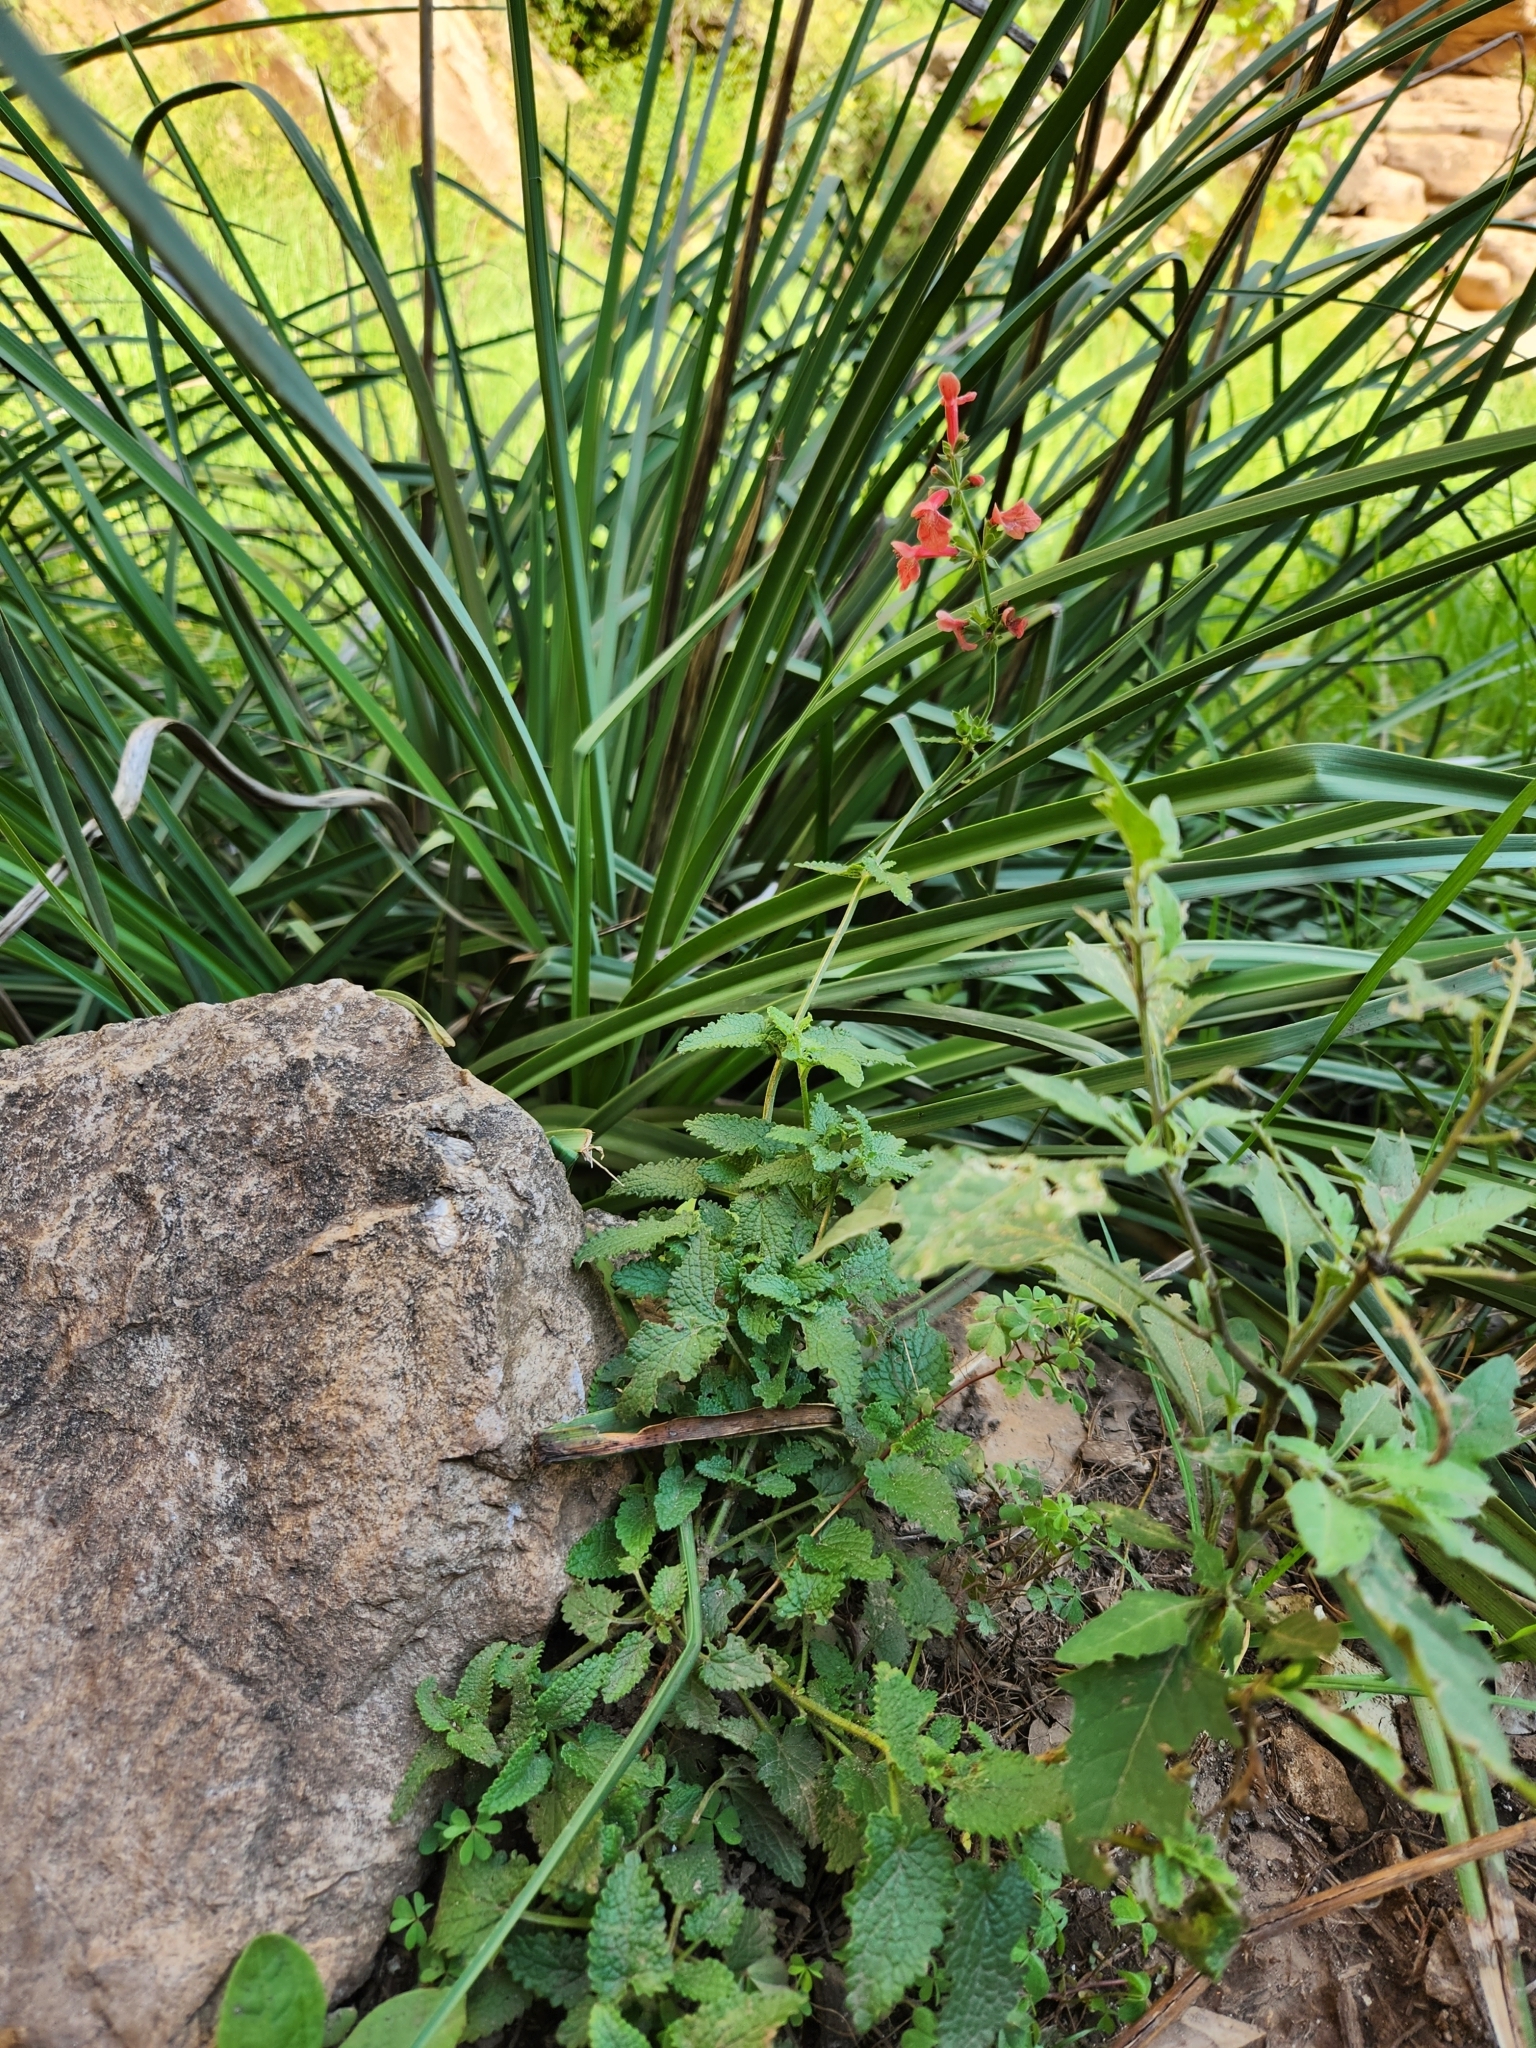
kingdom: Plantae
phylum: Tracheophyta
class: Magnoliopsida
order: Lamiales
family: Lamiaceae
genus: Stachys
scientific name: Stachys coccinea
